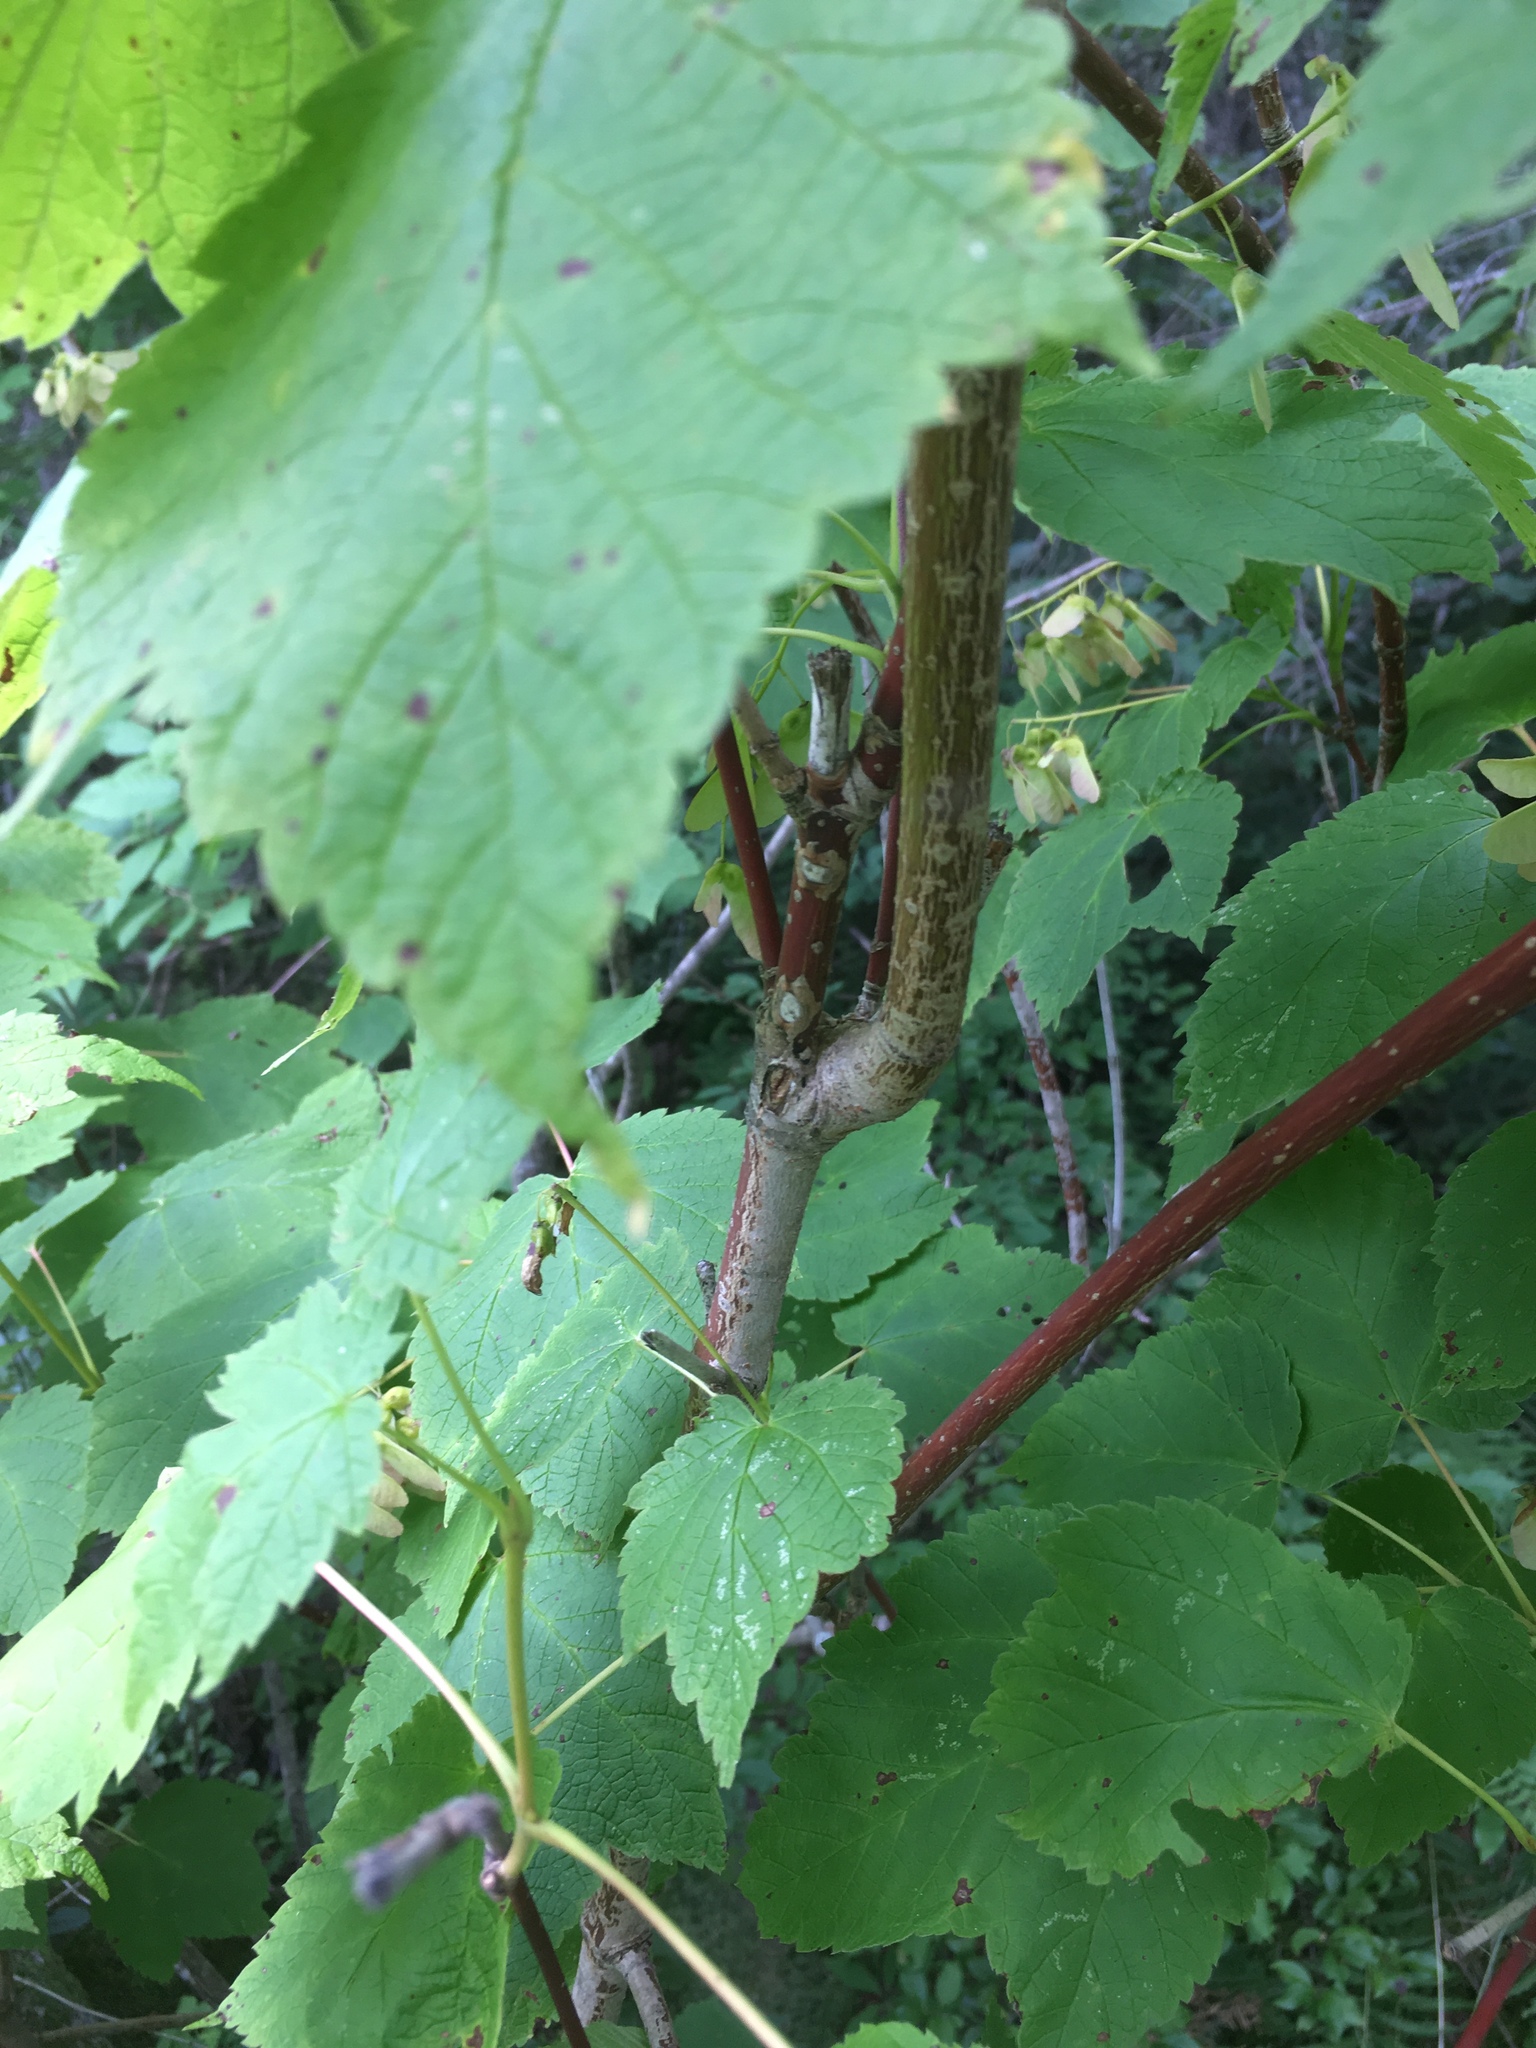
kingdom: Plantae
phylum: Tracheophyta
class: Magnoliopsida
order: Sapindales
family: Sapindaceae
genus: Acer
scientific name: Acer spicatum
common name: Mountain maple
